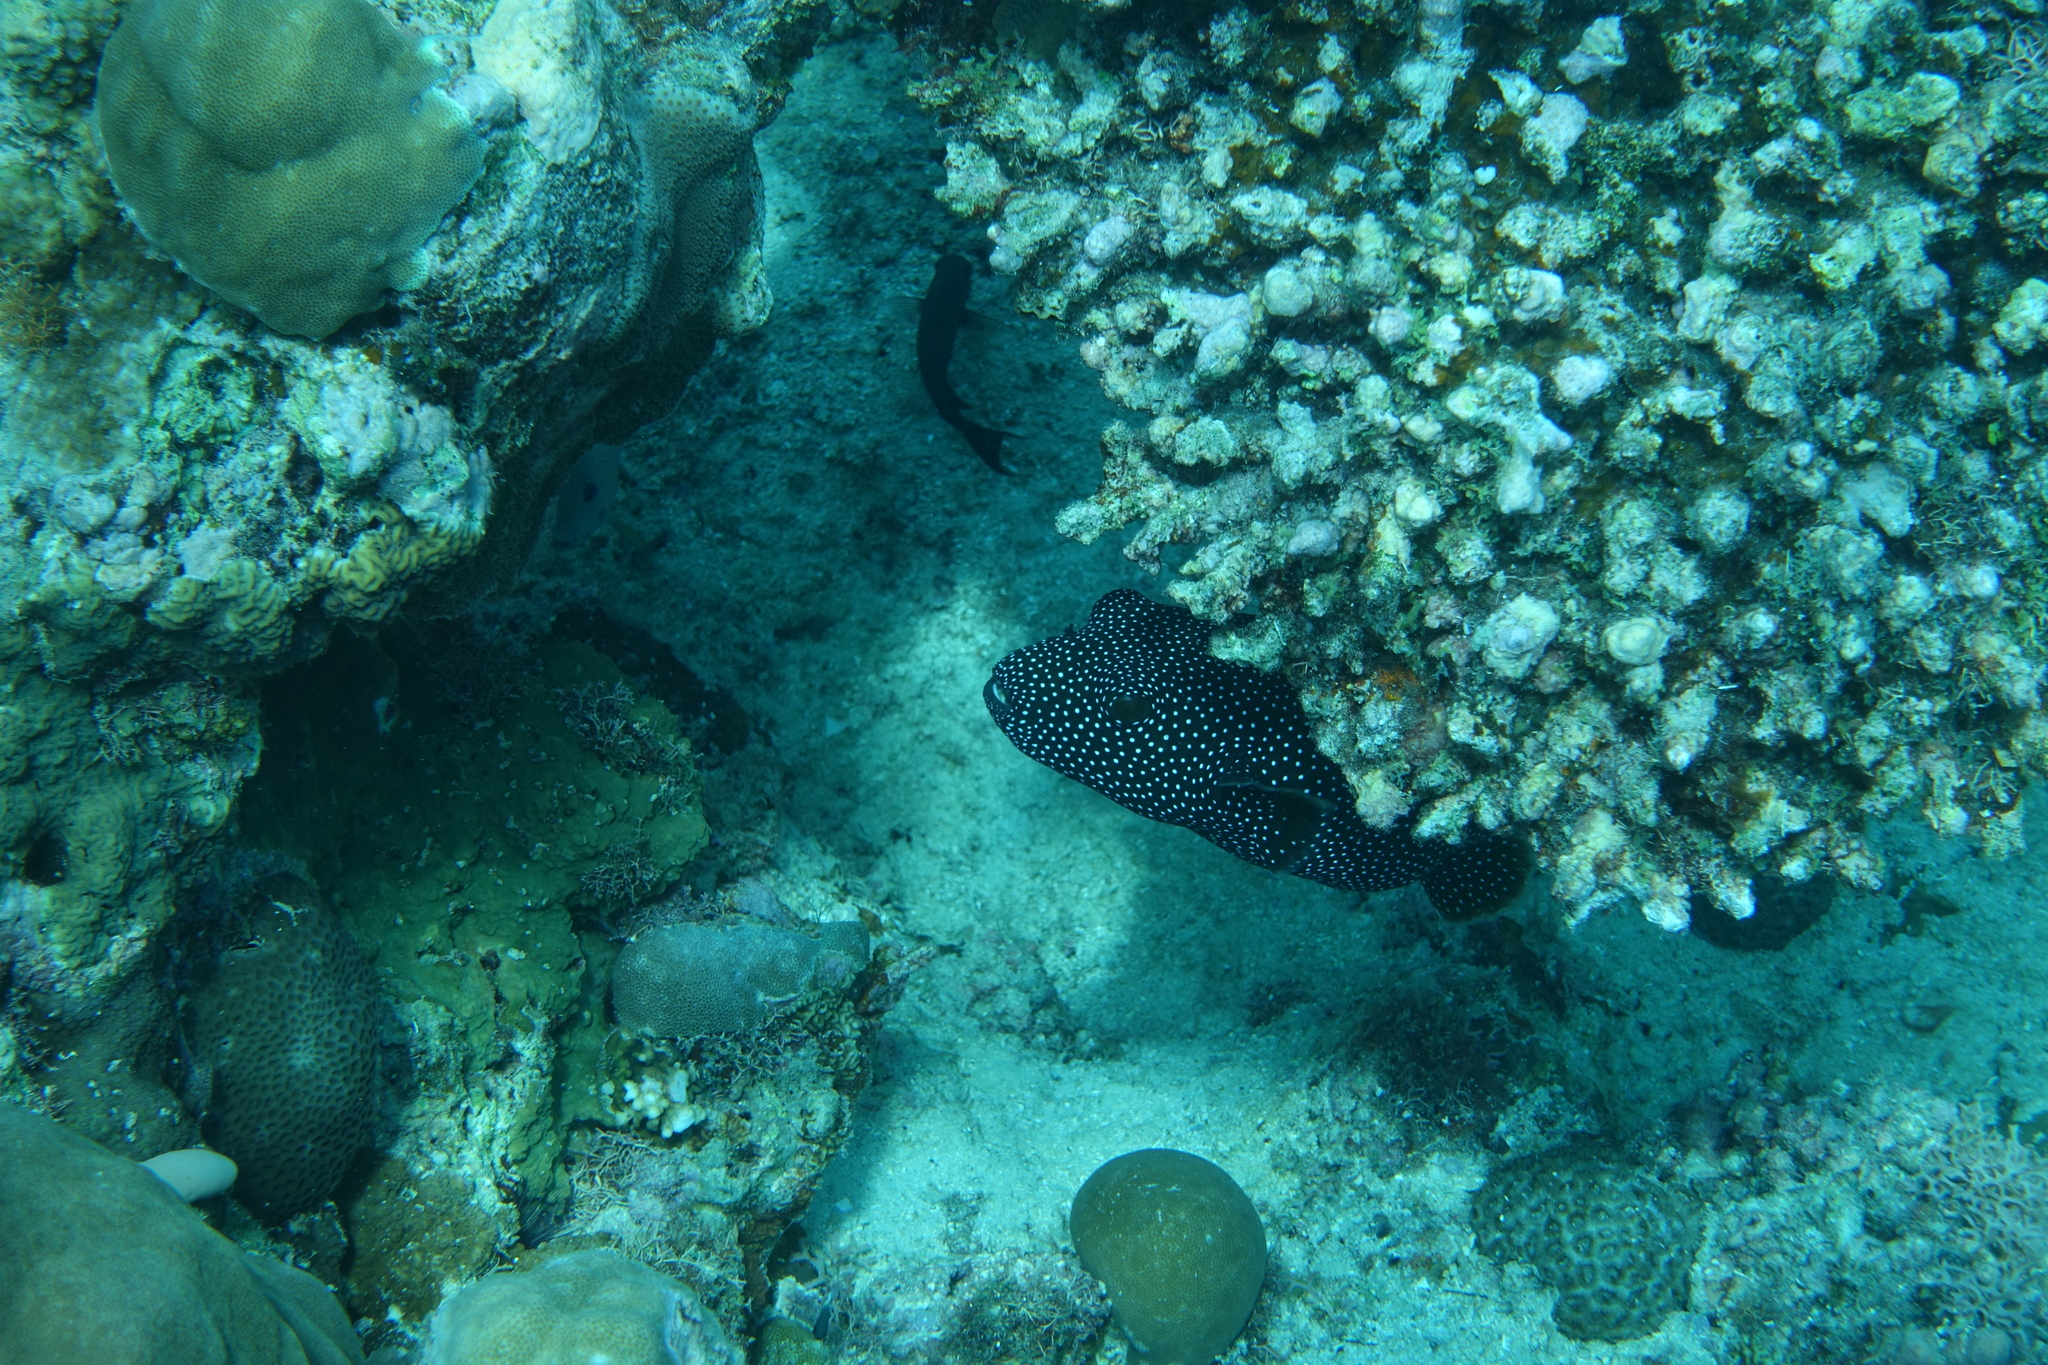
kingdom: Animalia
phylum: Chordata
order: Tetraodontiformes
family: Tetraodontidae
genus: Arothron
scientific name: Arothron meleagris
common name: Guinea-fowl pufferfish
